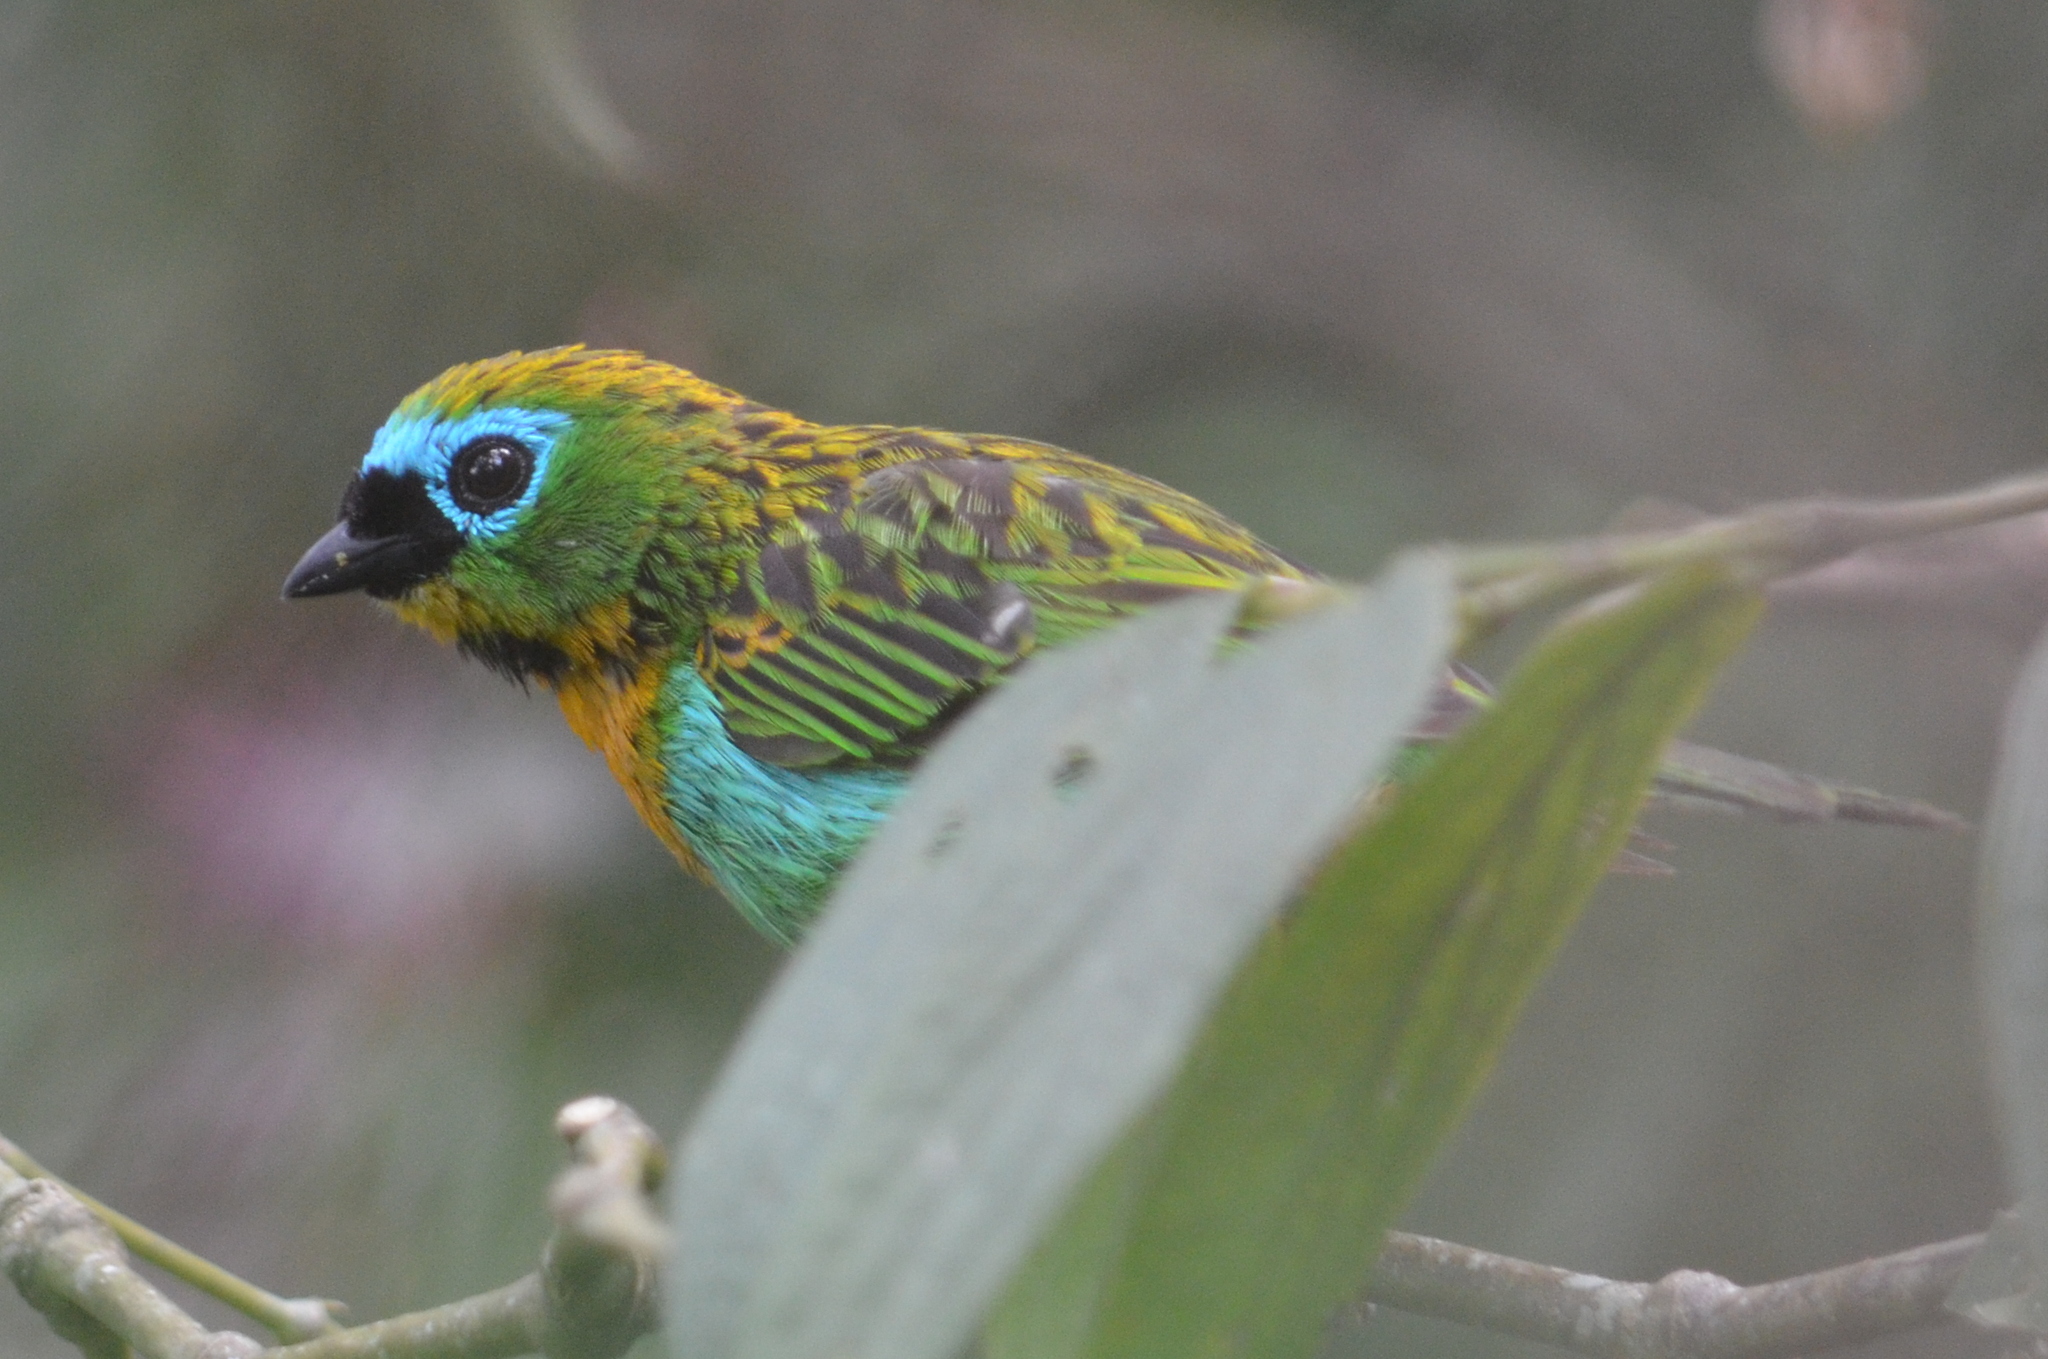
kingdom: Animalia
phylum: Chordata
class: Aves
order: Passeriformes
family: Thraupidae
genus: Tangara
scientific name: Tangara desmaresti
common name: Brassy-breasted tanager
